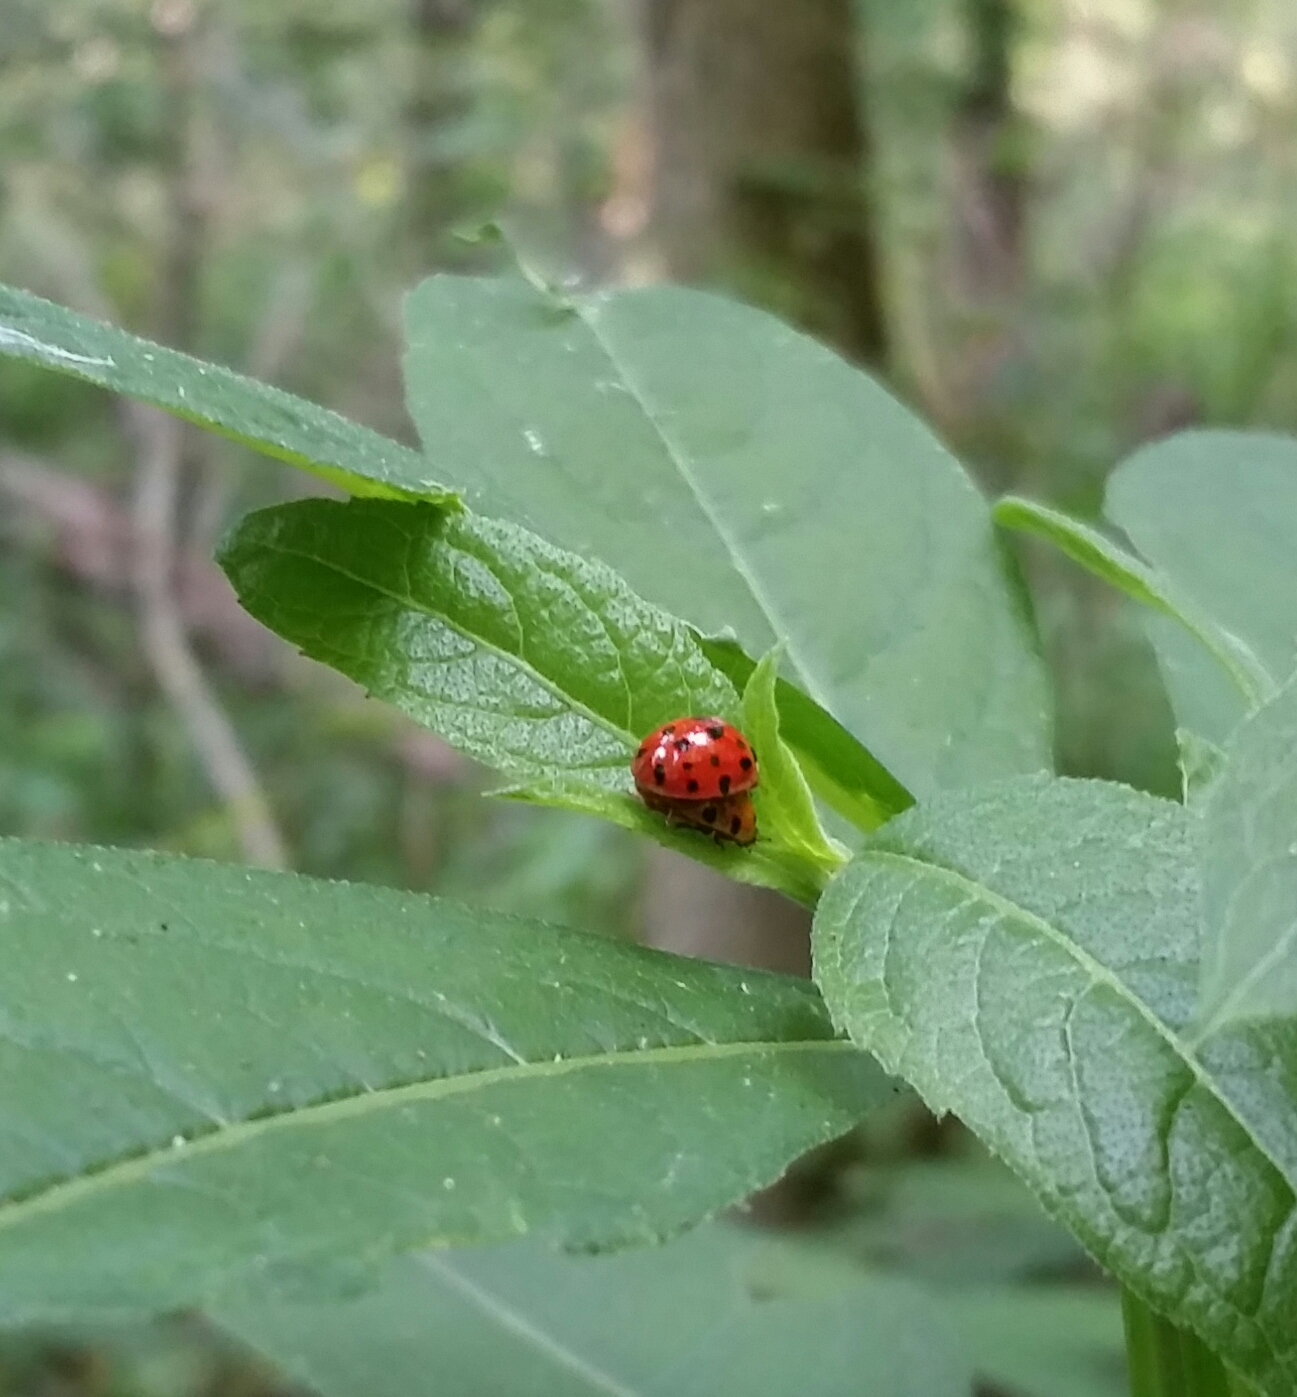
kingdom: Animalia
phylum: Arthropoda
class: Insecta
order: Coleoptera
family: Coccinellidae
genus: Harmonia
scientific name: Harmonia axyridis
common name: Harlequin ladybird
